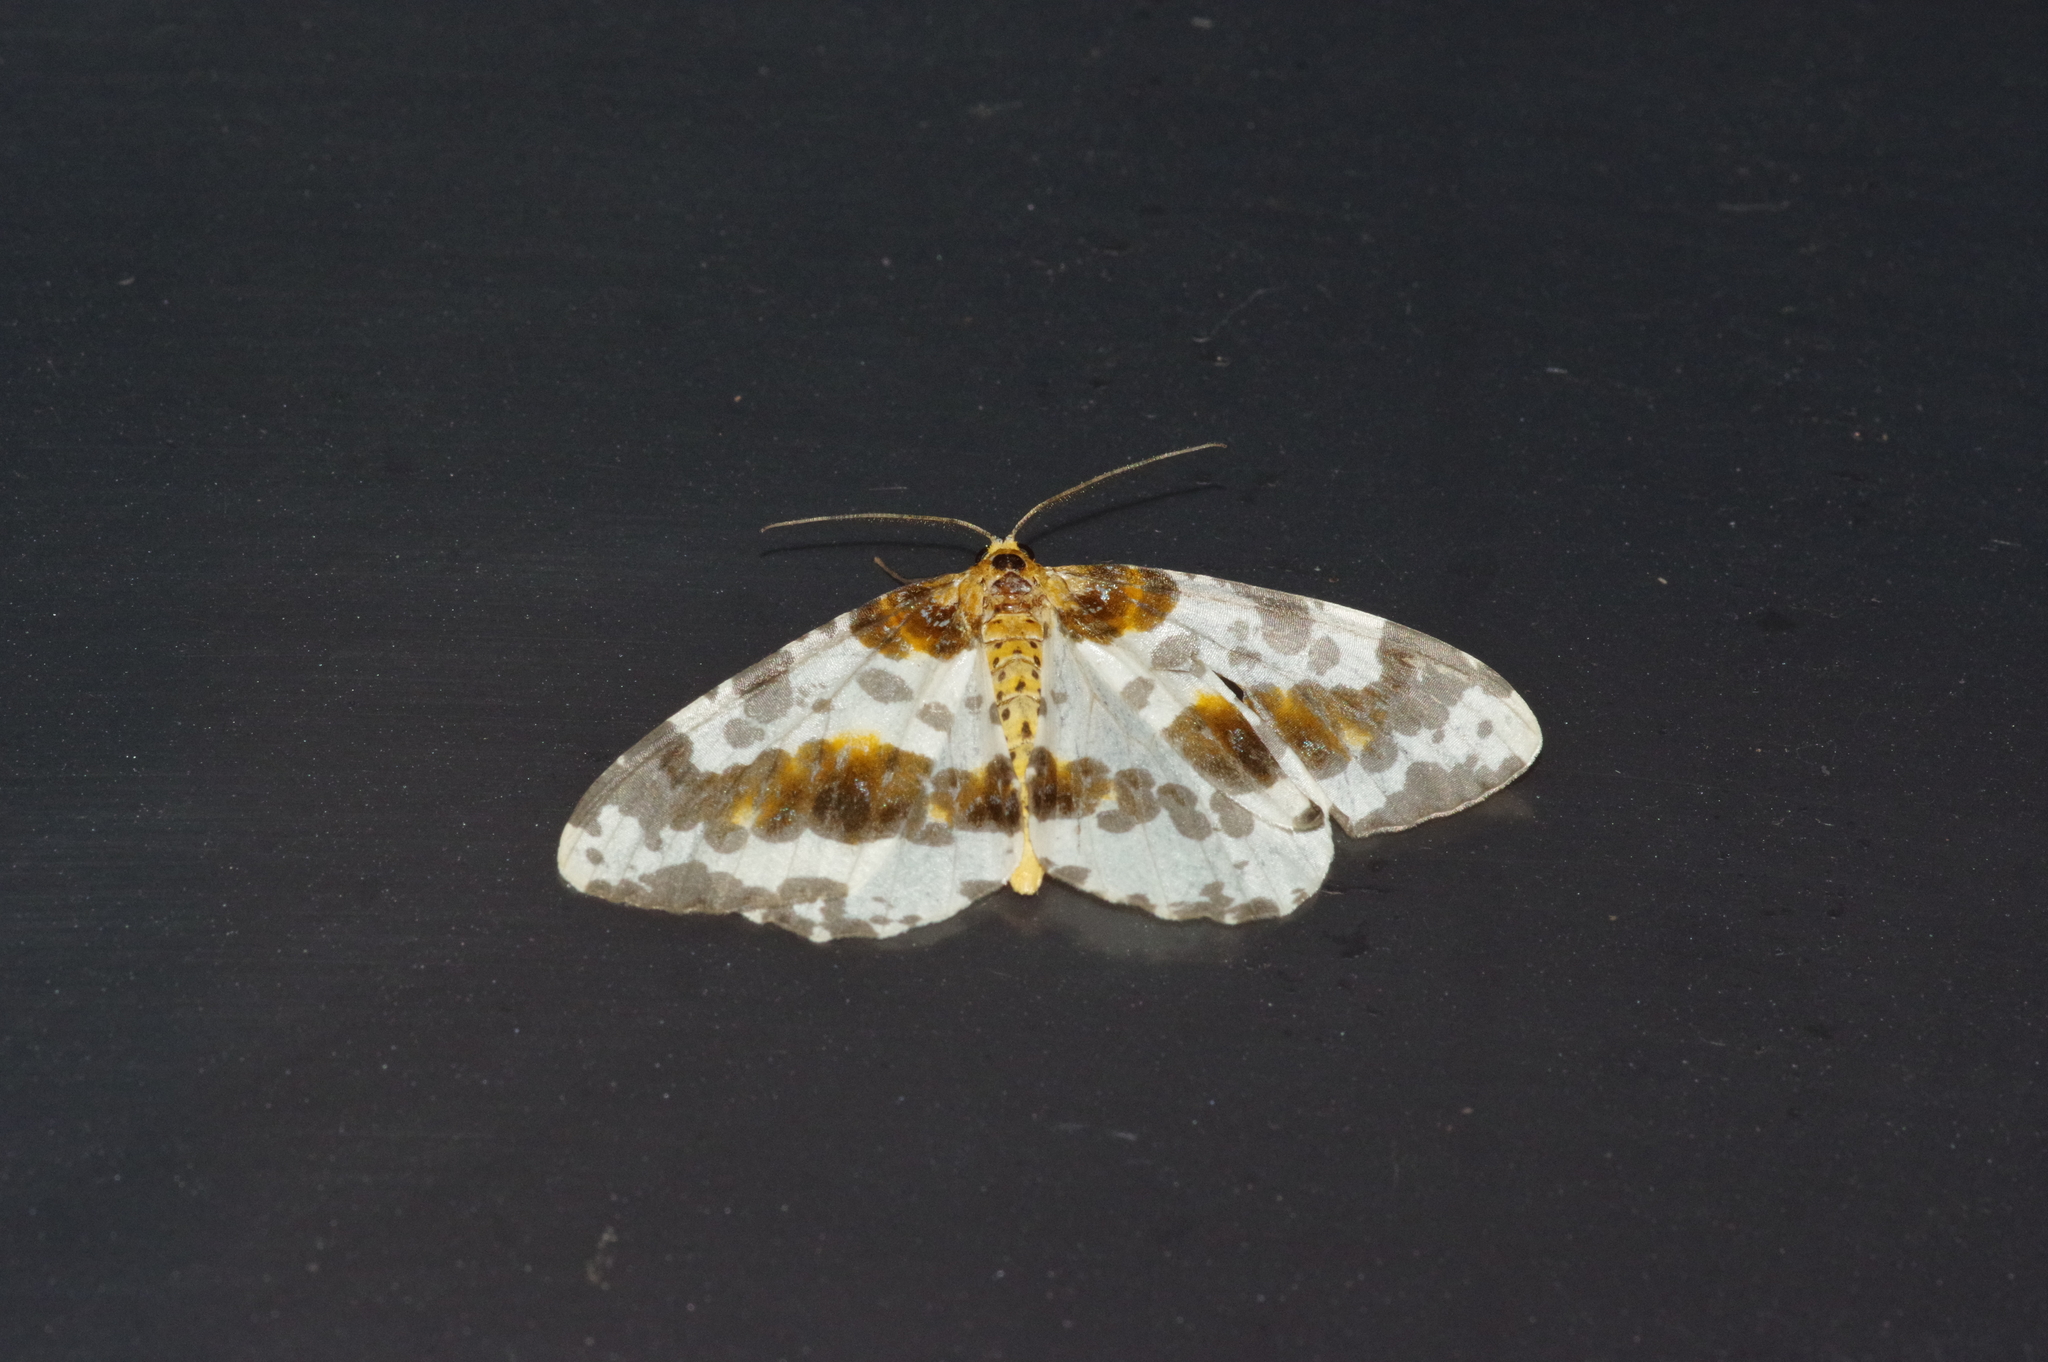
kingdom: Animalia
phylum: Arthropoda
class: Insecta
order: Lepidoptera
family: Geometridae
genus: Abraxas
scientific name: Abraxas miranda
